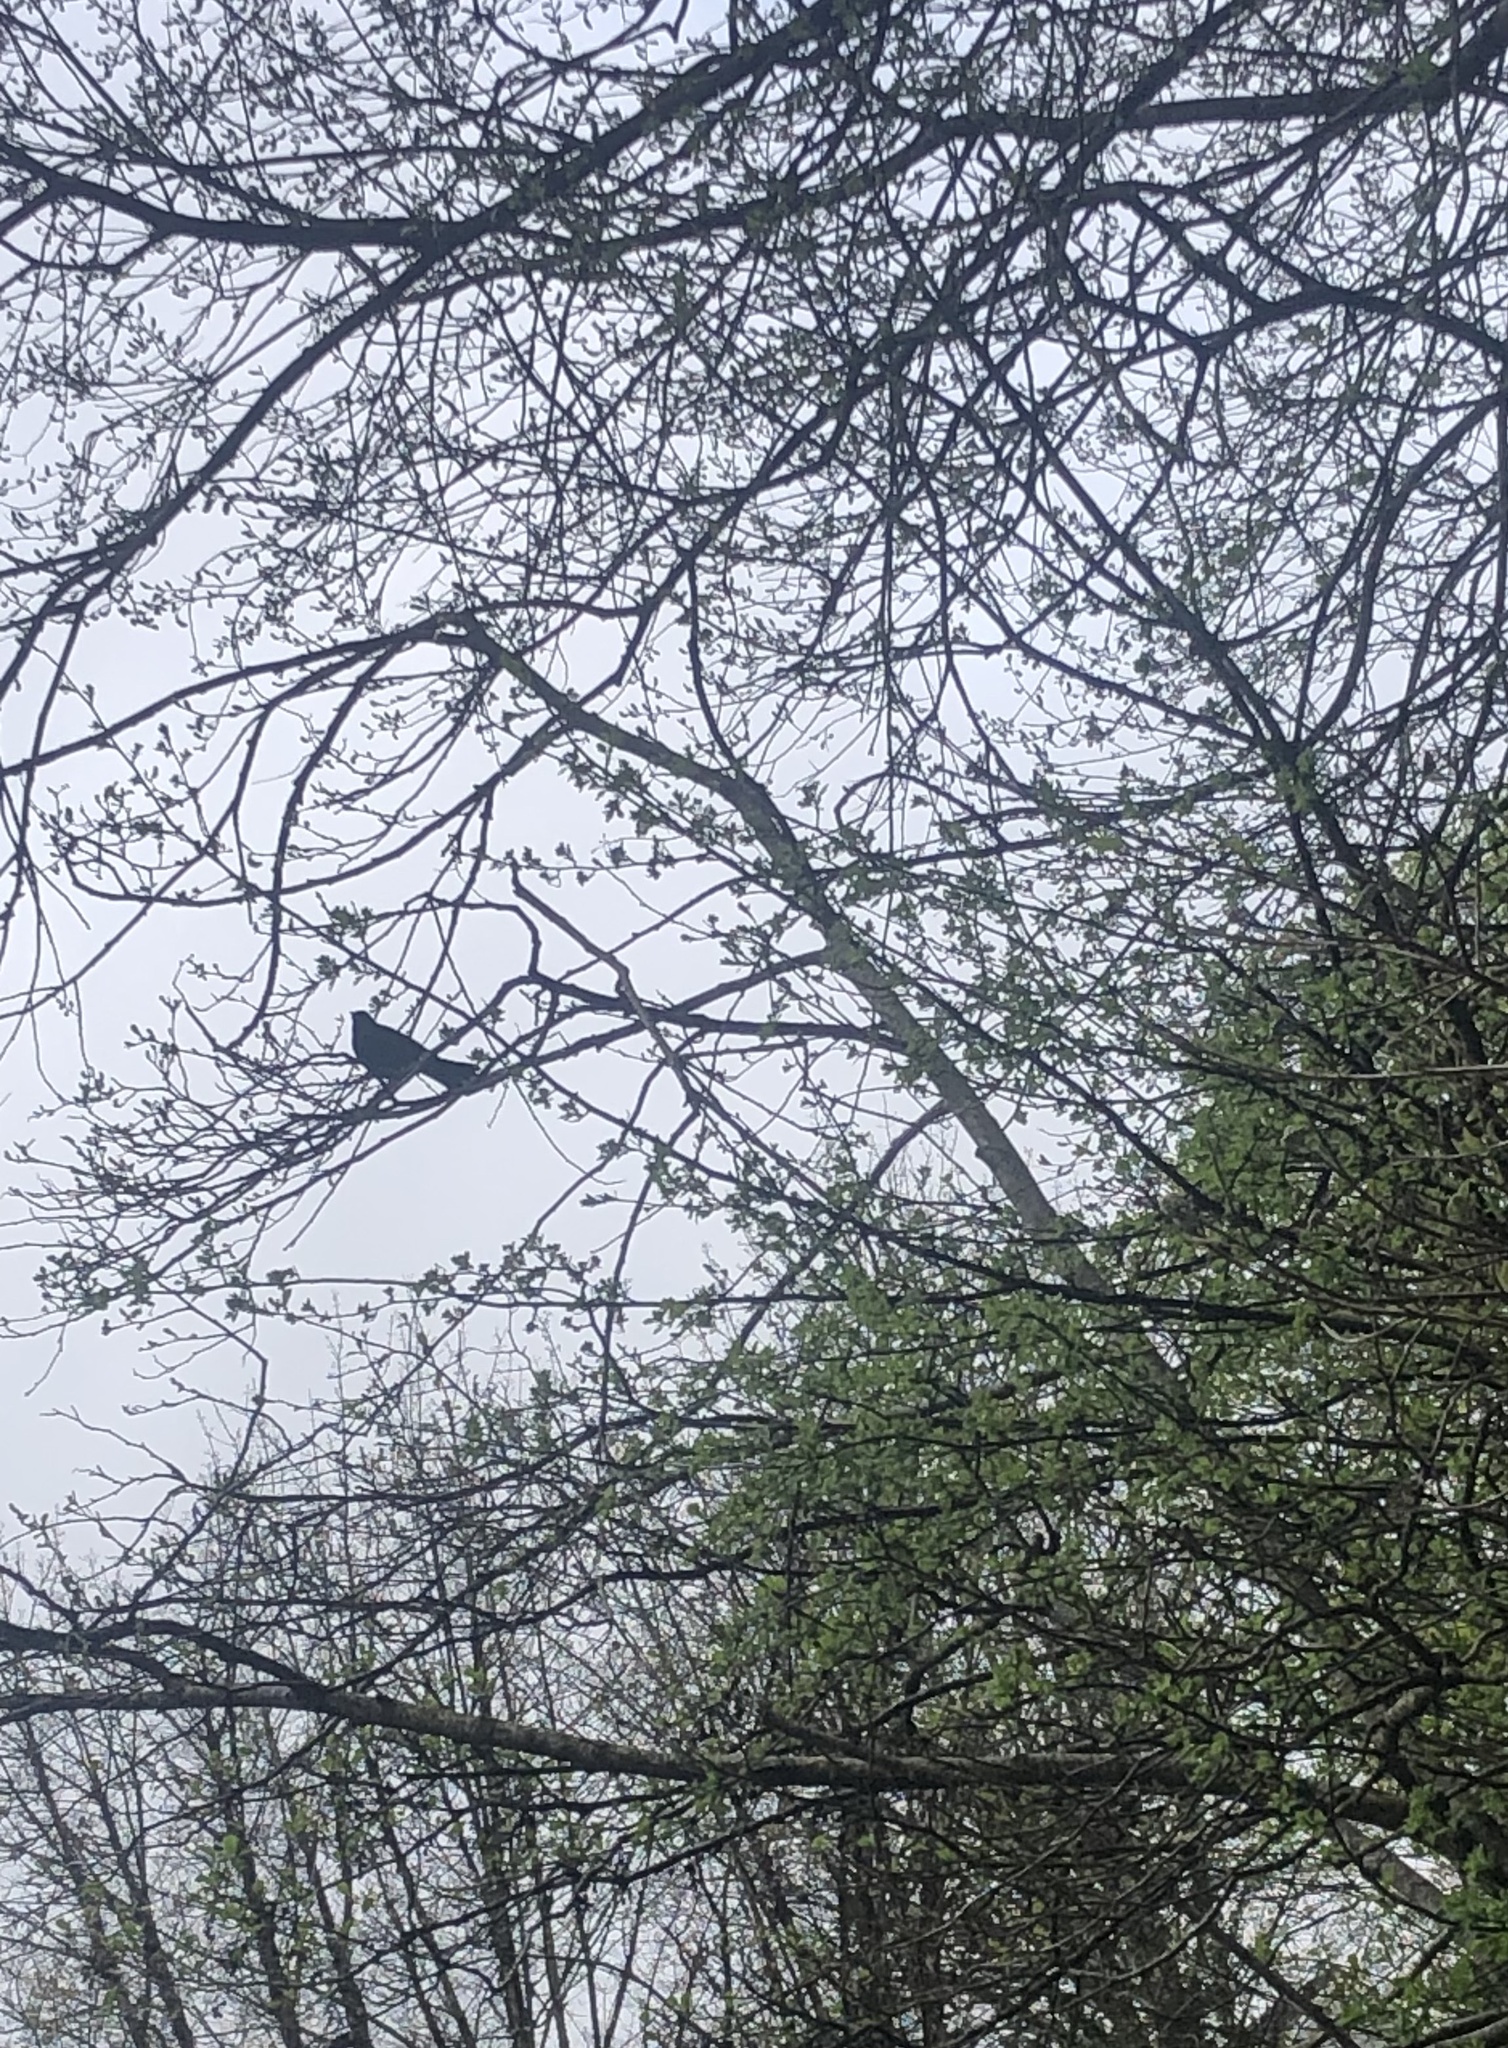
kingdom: Animalia
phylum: Chordata
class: Aves
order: Passeriformes
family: Turdidae
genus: Turdus
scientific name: Turdus merula
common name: Common blackbird
